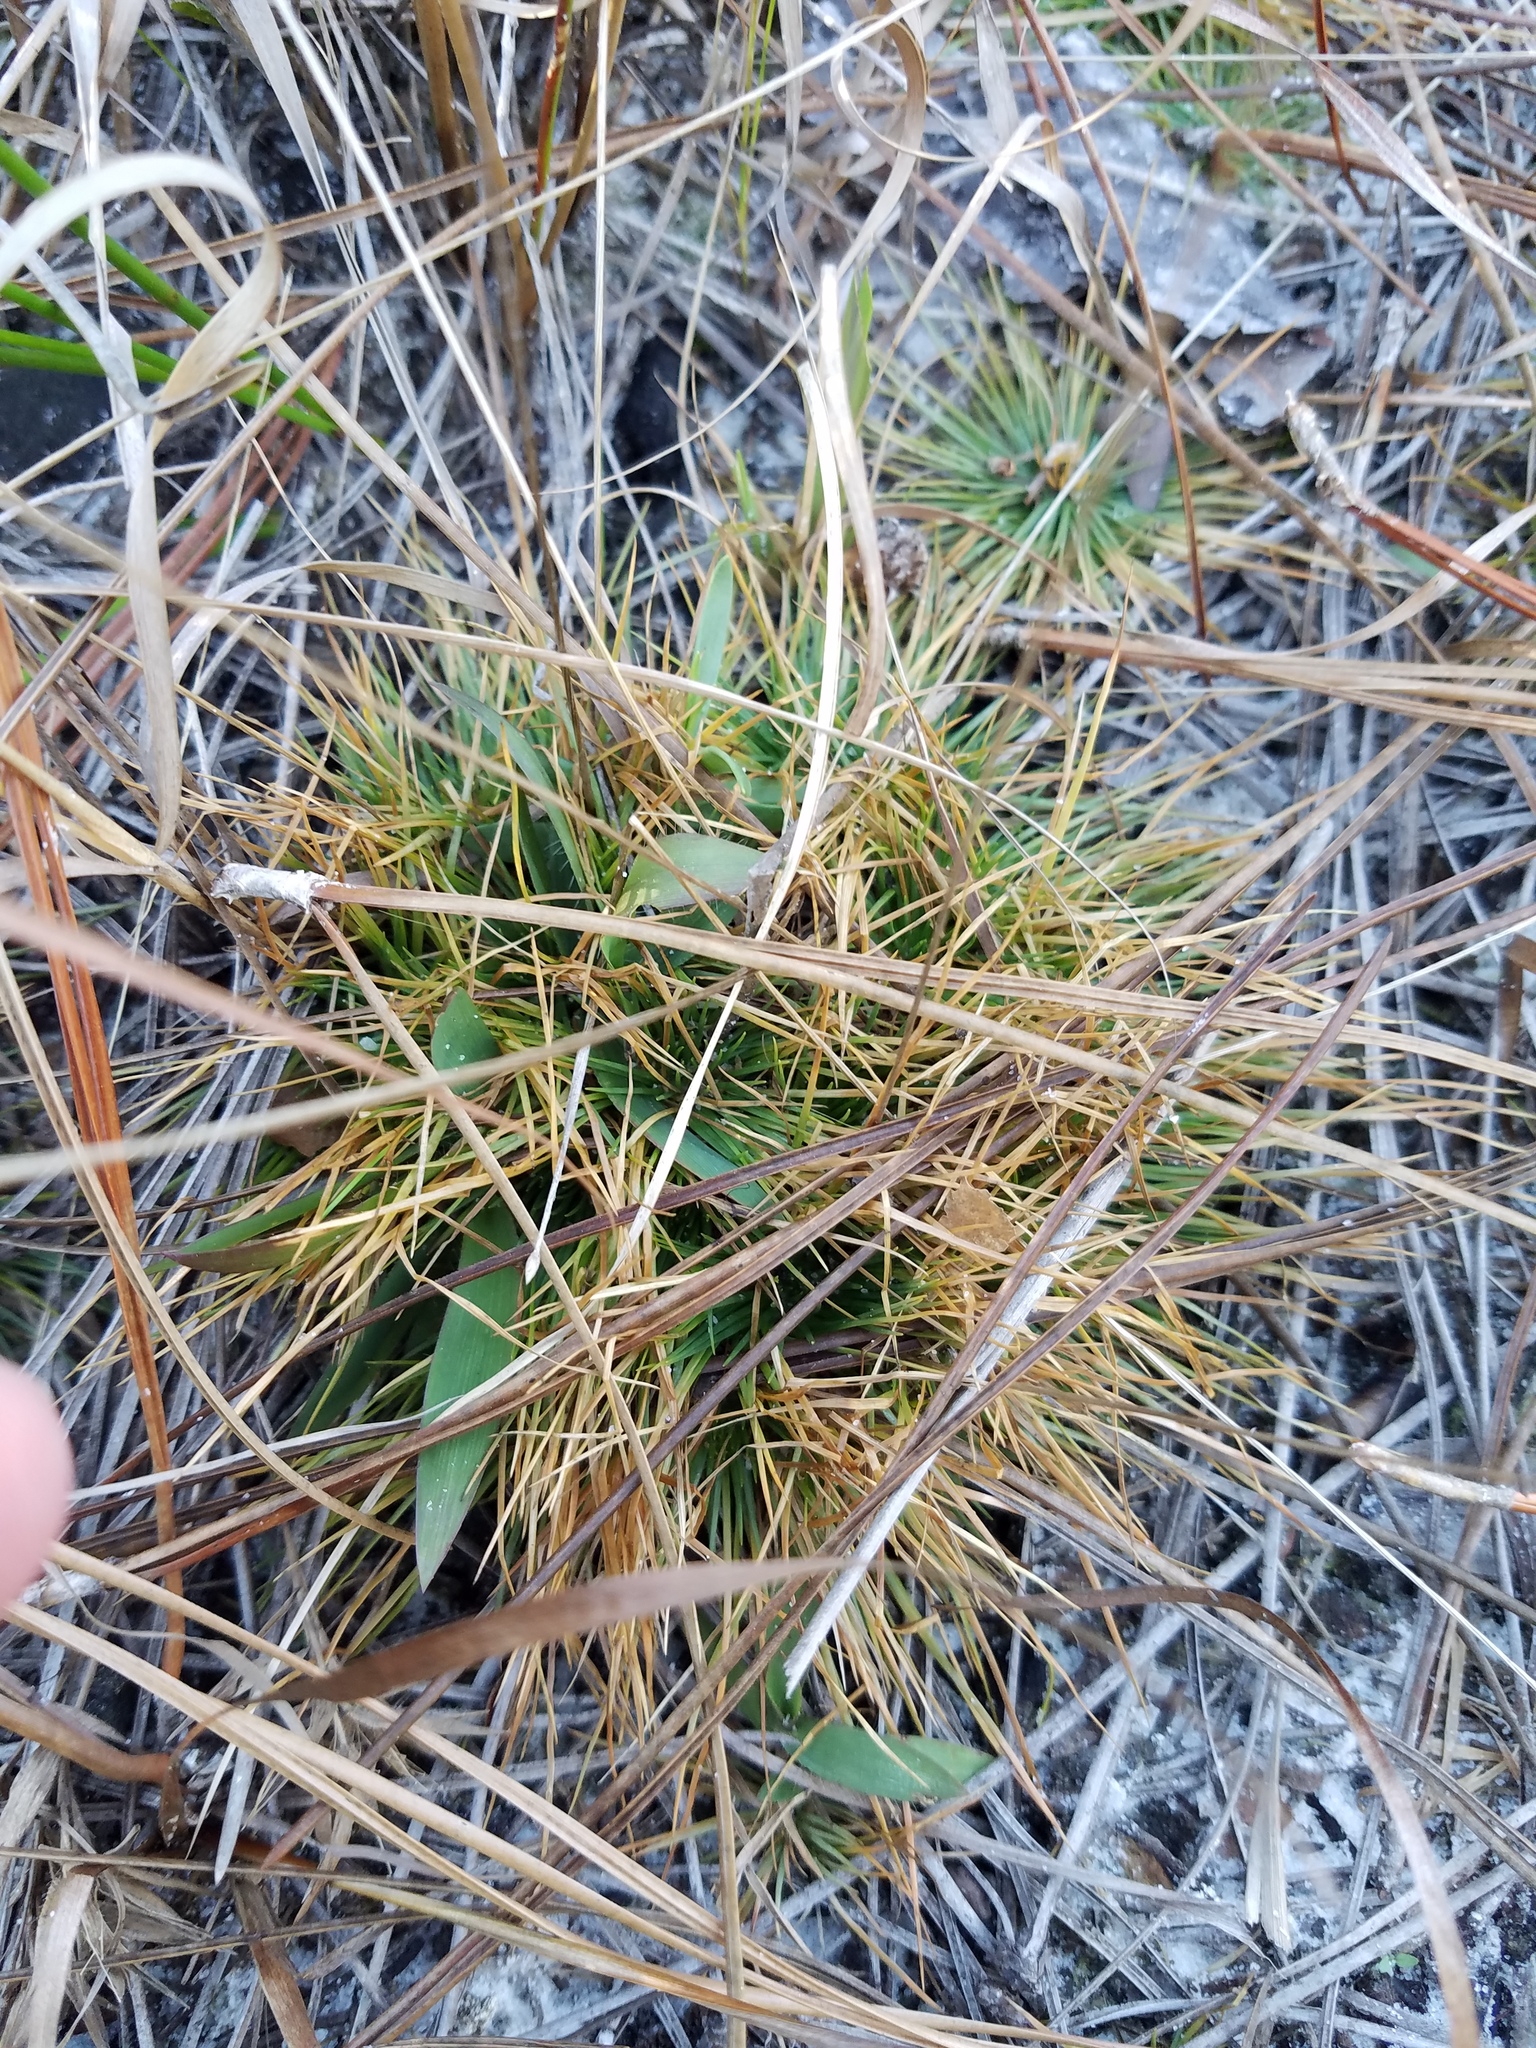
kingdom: Plantae
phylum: Tracheophyta
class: Liliopsida
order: Poales
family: Eriocaulaceae
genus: Syngonanthus
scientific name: Syngonanthus flavidulus
